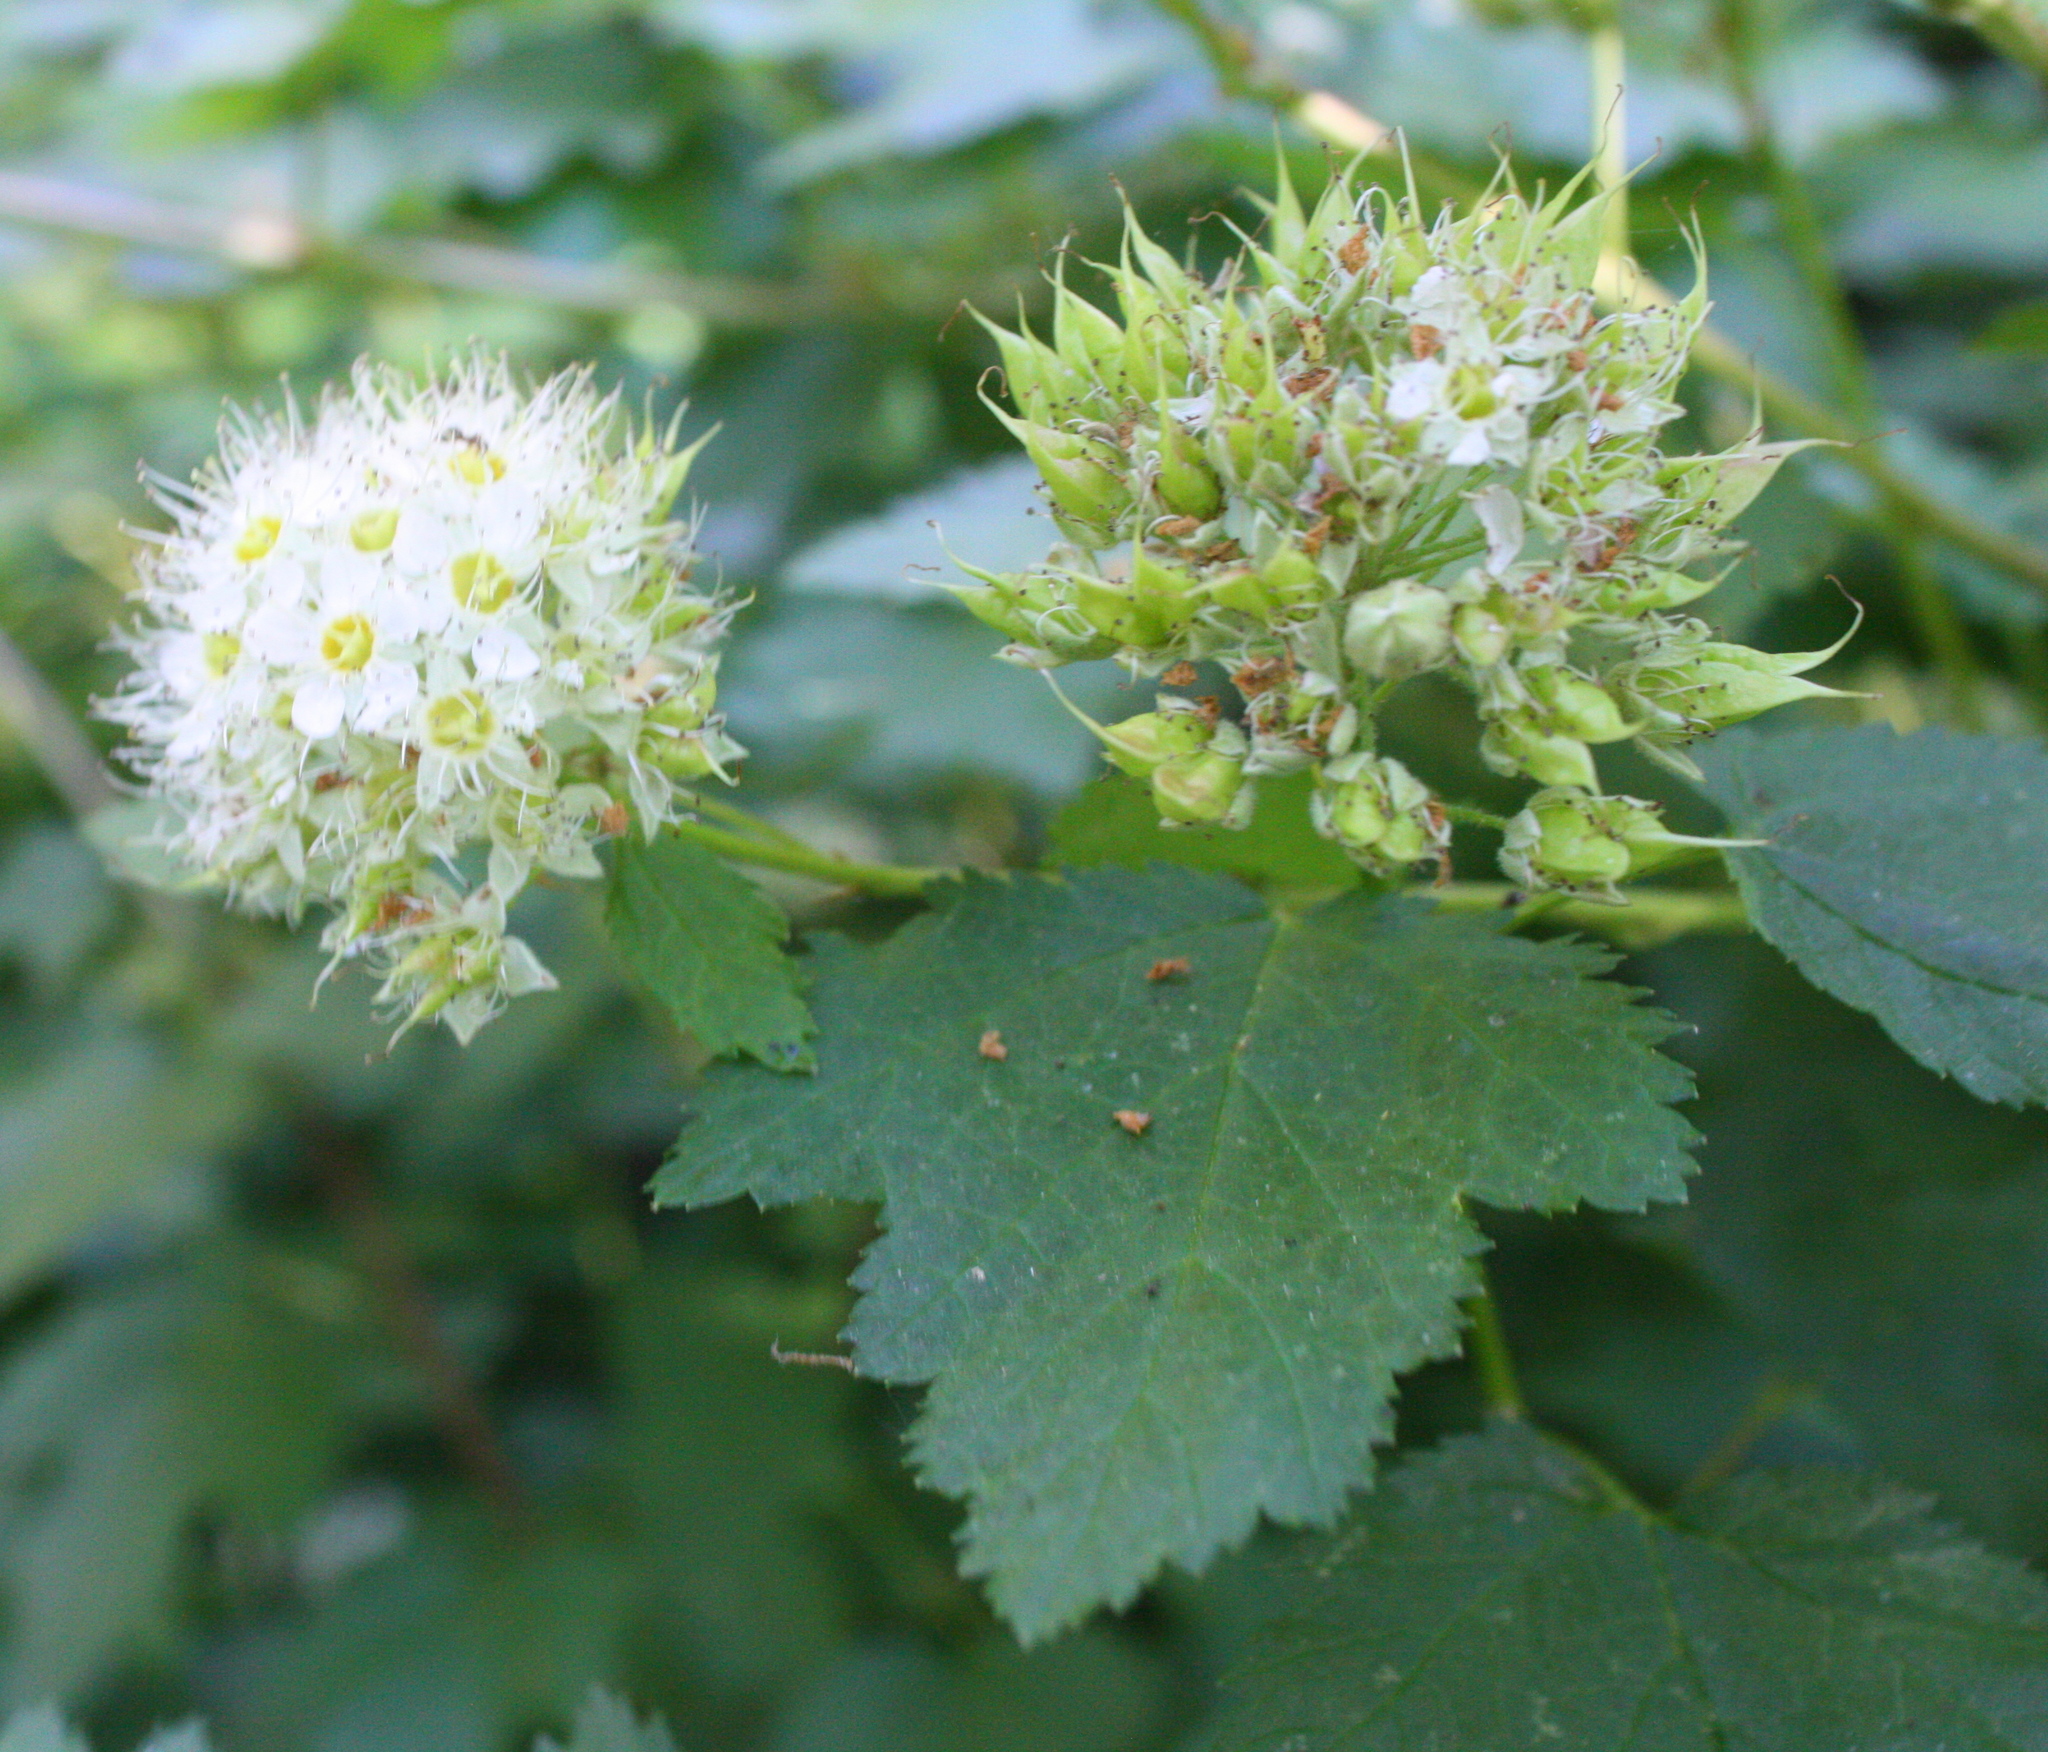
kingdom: Plantae
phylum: Tracheophyta
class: Magnoliopsida
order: Rosales
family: Rosaceae
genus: Physocarpus
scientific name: Physocarpus capitatus
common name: Pacific ninebark
